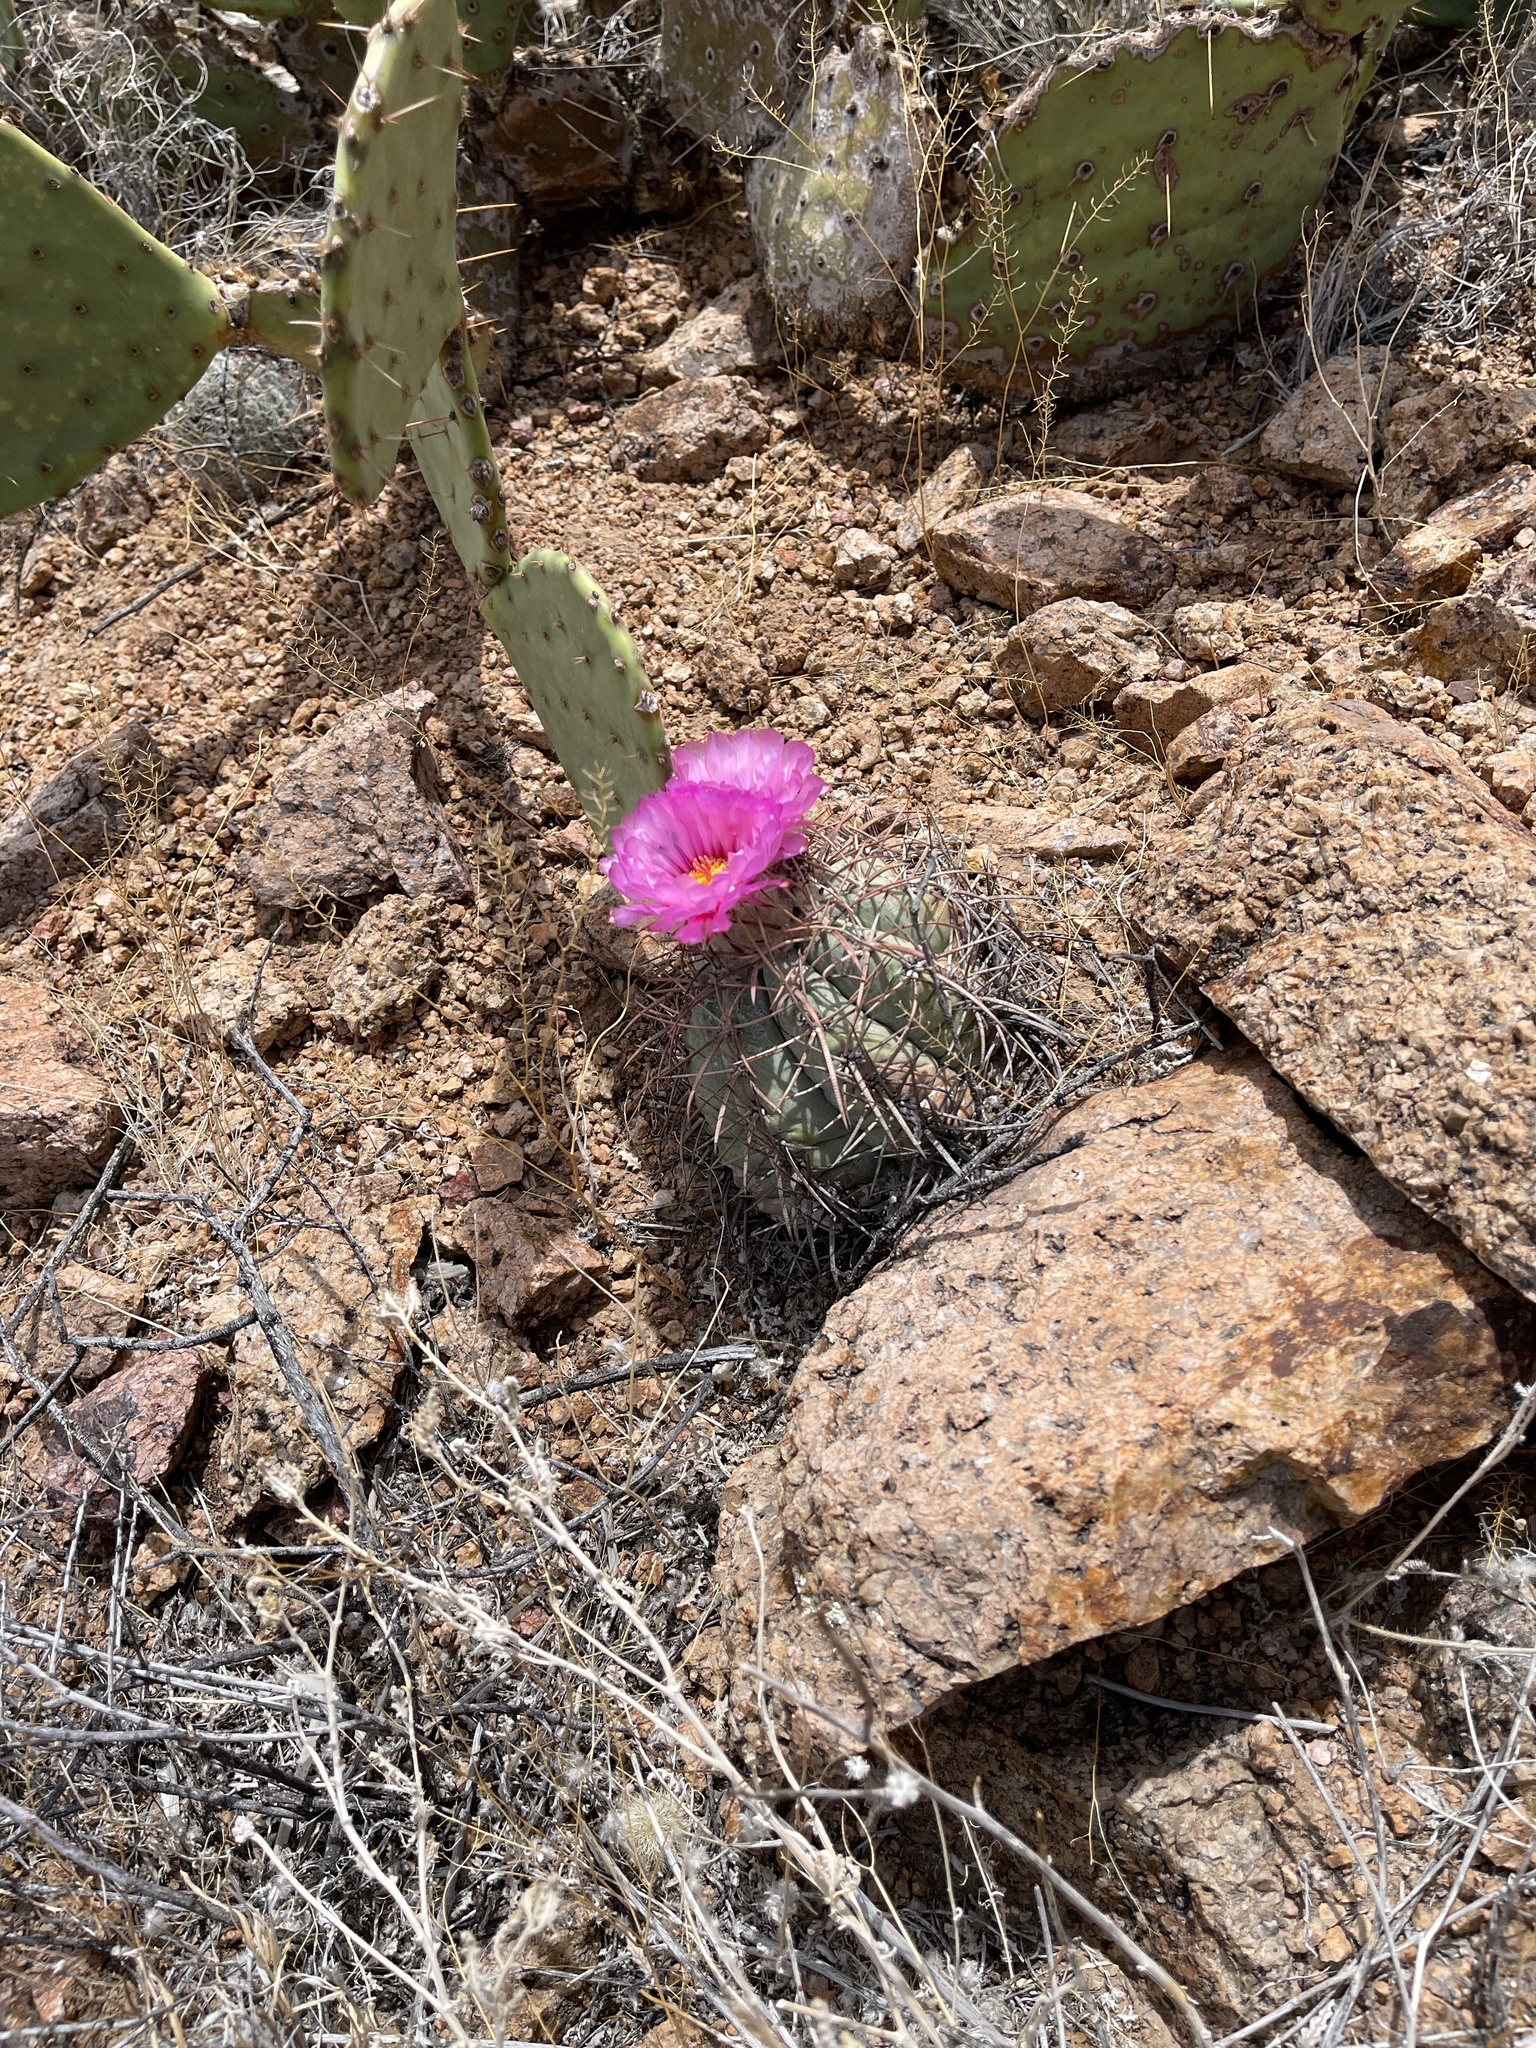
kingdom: Plantae
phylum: Tracheophyta
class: Magnoliopsida
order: Caryophyllales
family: Cactaceae
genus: Echinocactus
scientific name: Echinocactus horizonthalonius
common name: Devilshead
